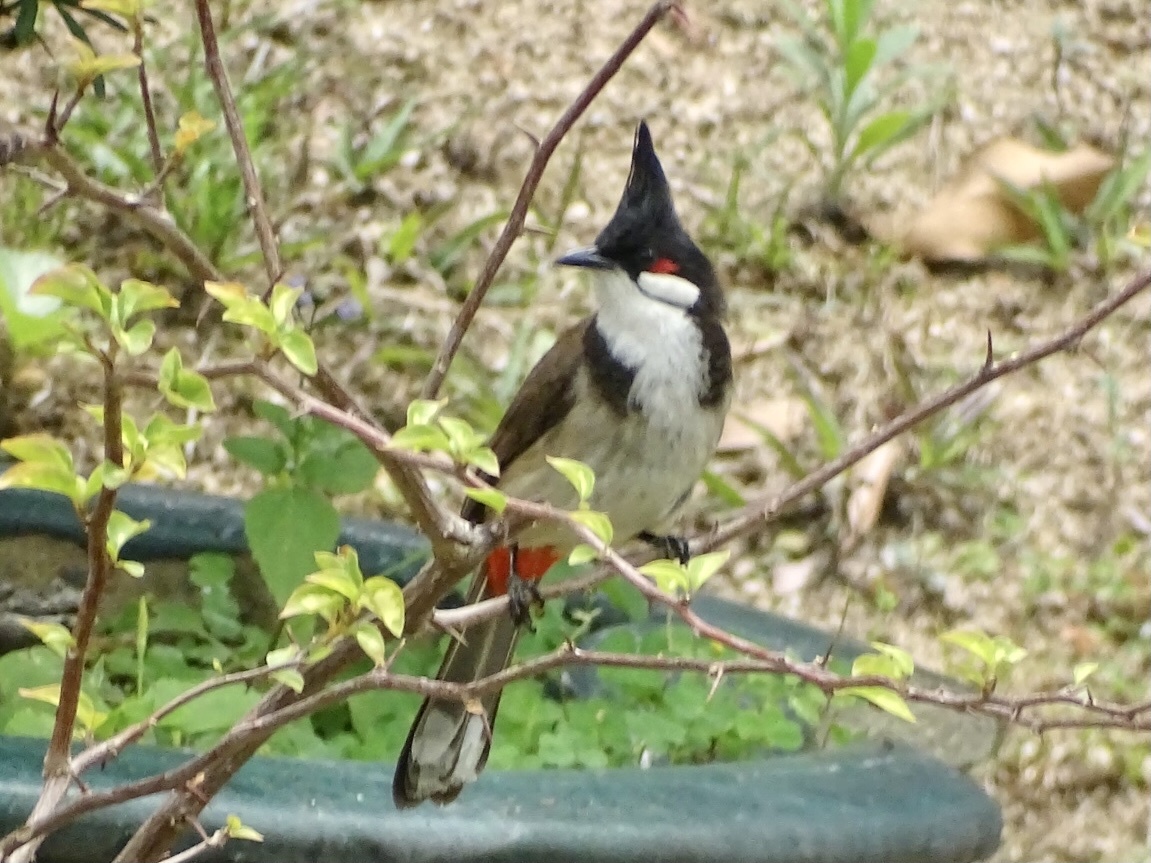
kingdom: Animalia
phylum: Chordata
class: Aves
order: Passeriformes
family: Pycnonotidae
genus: Pycnonotus
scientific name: Pycnonotus jocosus
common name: Red-whiskered bulbul
